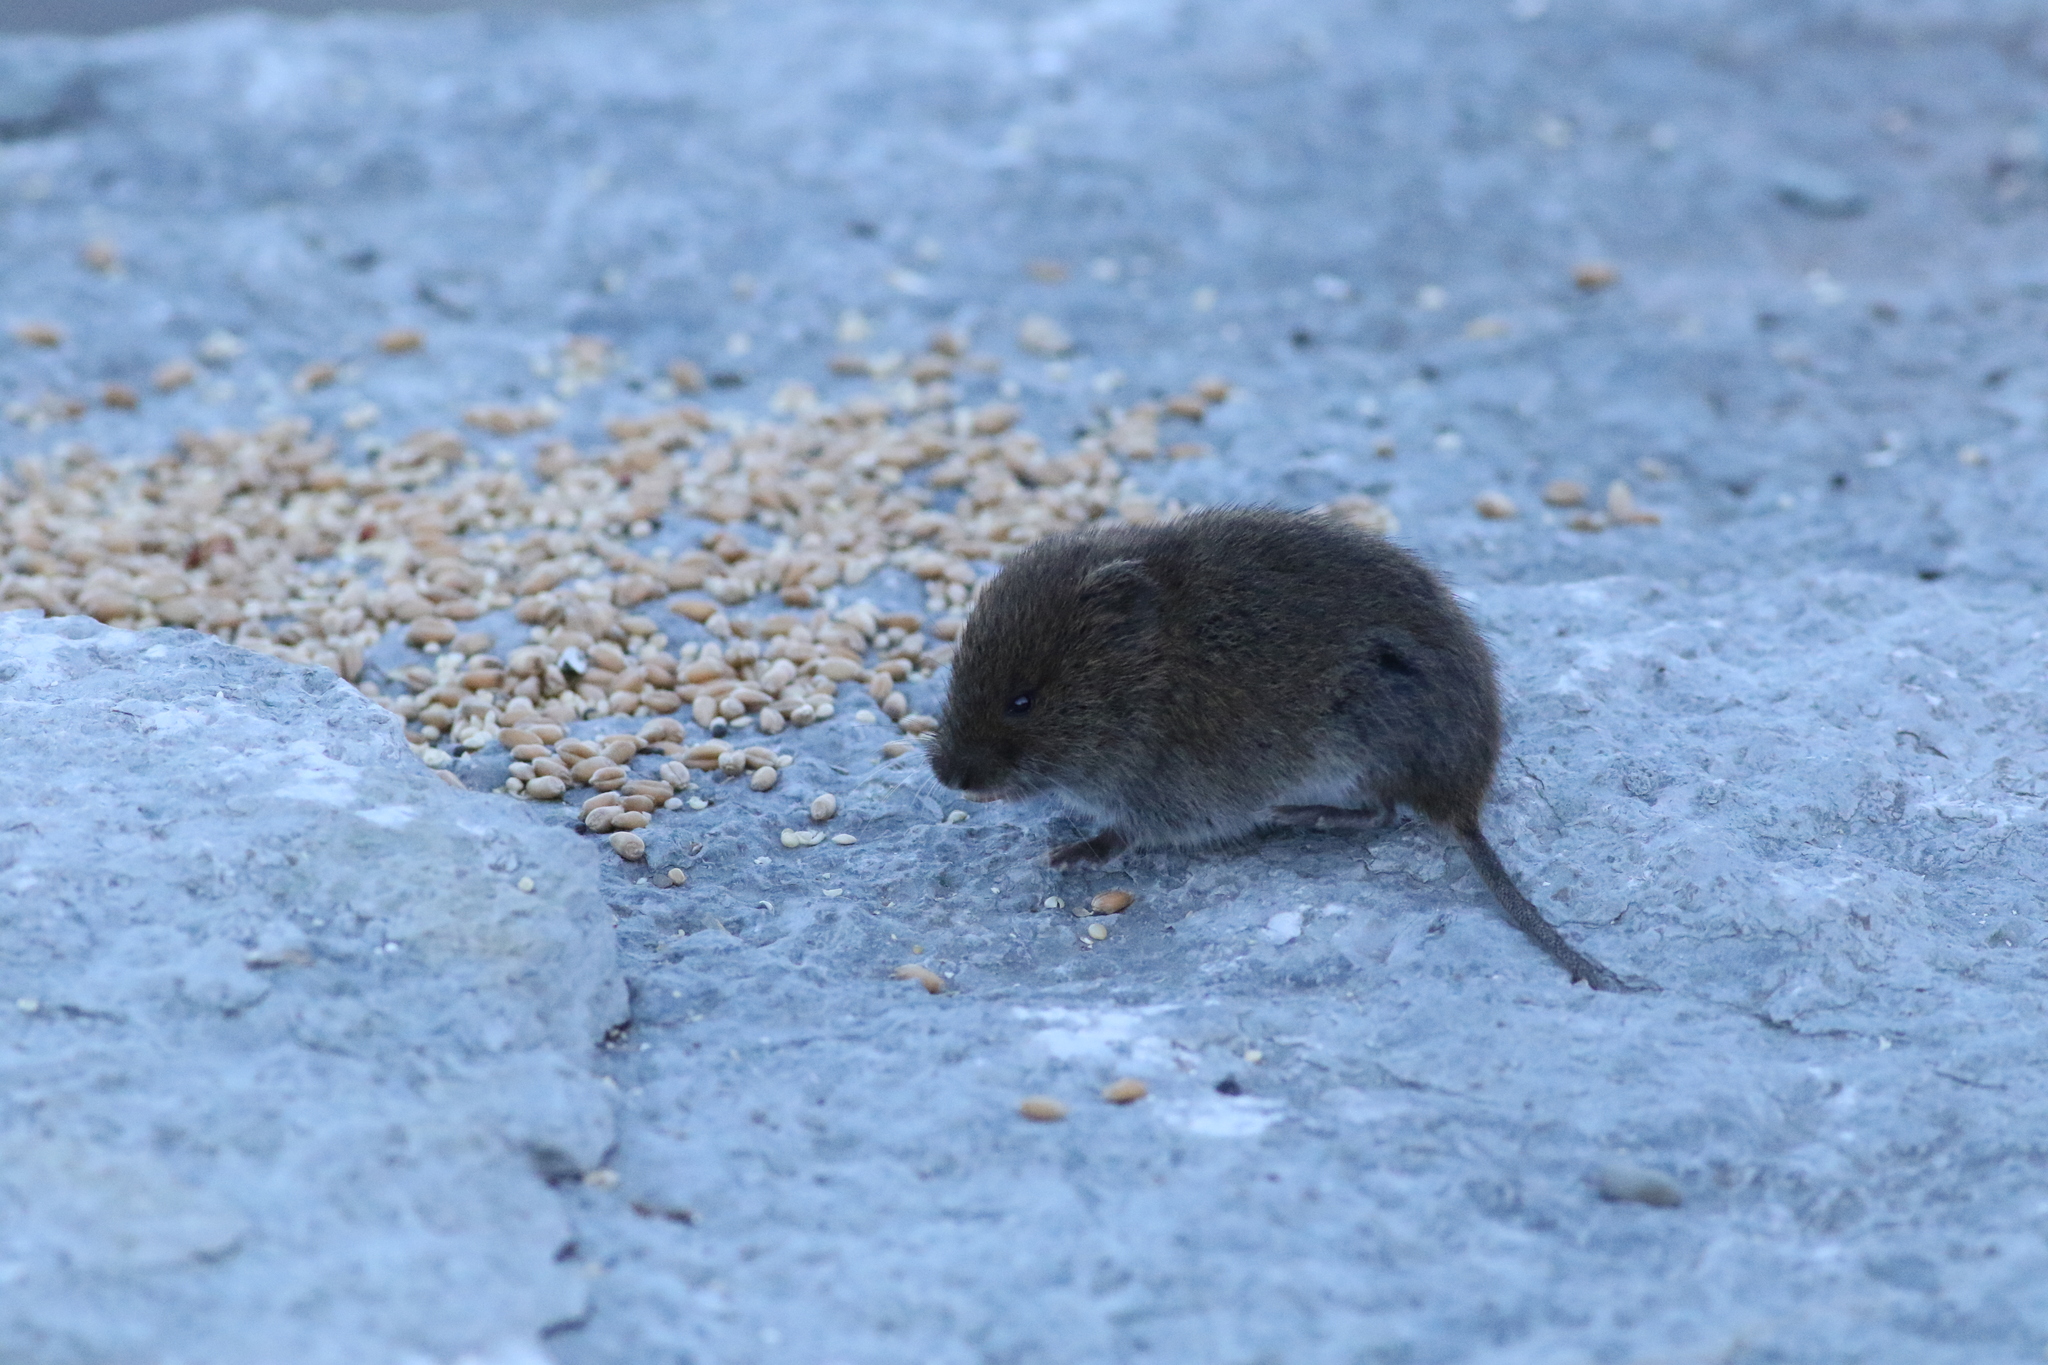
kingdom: Animalia
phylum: Chordata
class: Mammalia
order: Rodentia
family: Cricetidae
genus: Microtus
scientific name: Microtus pennsylvanicus
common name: Meadow vole
